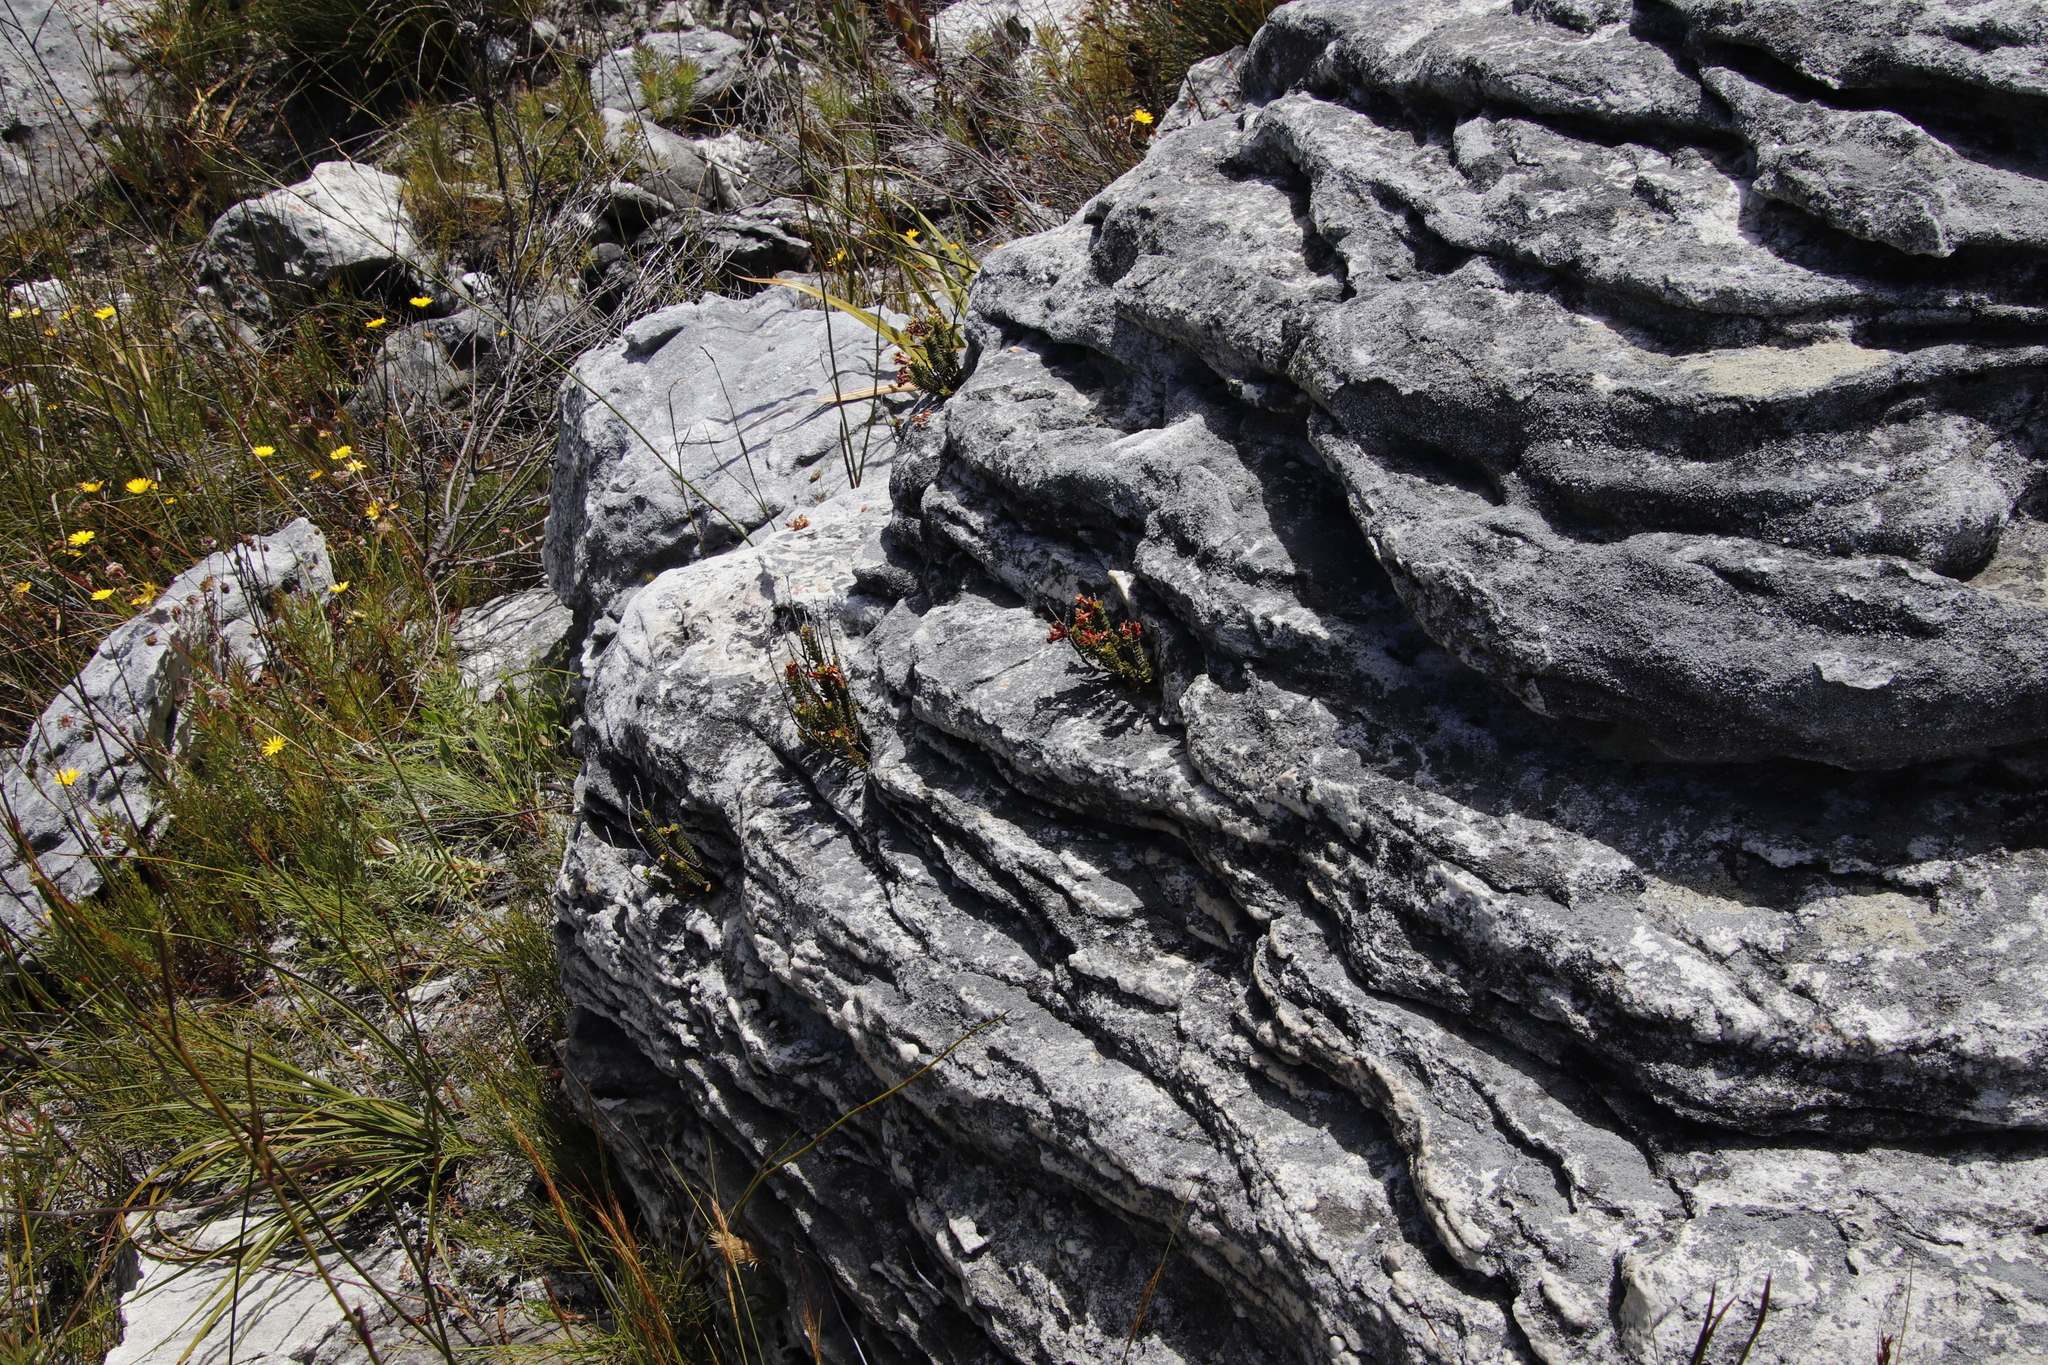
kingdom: Plantae
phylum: Tracheophyta
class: Magnoliopsida
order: Myrtales
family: Penaeaceae
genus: Sonderothamnus
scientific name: Sonderothamnus petraeus
